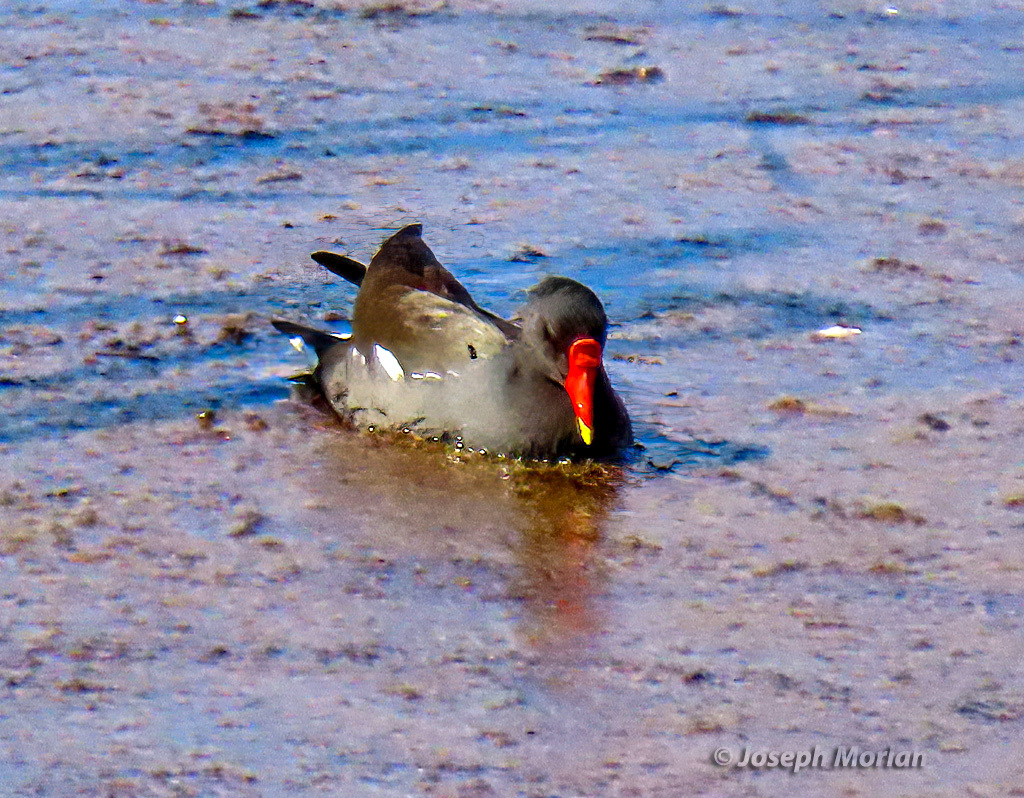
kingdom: Animalia
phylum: Chordata
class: Aves
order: Gruiformes
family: Rallidae
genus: Gallinula
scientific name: Gallinula chloropus
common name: Common moorhen
